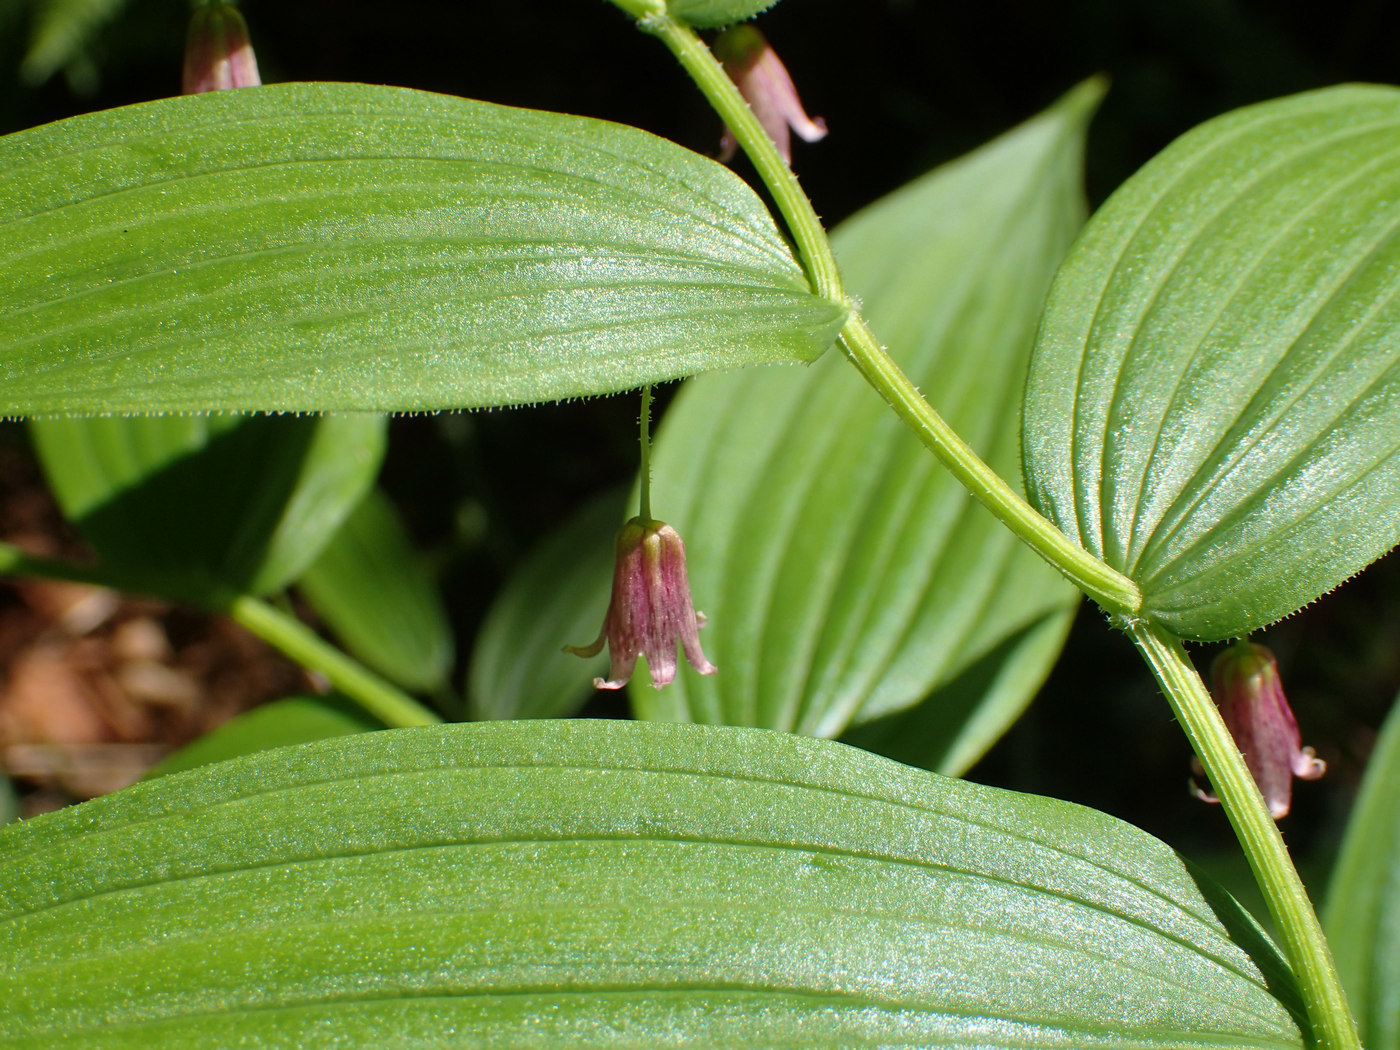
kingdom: Plantae
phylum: Tracheophyta
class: Liliopsida
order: Liliales
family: Liliaceae
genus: Streptopus
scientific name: Streptopus lanceolatus
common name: Rose mandarin
